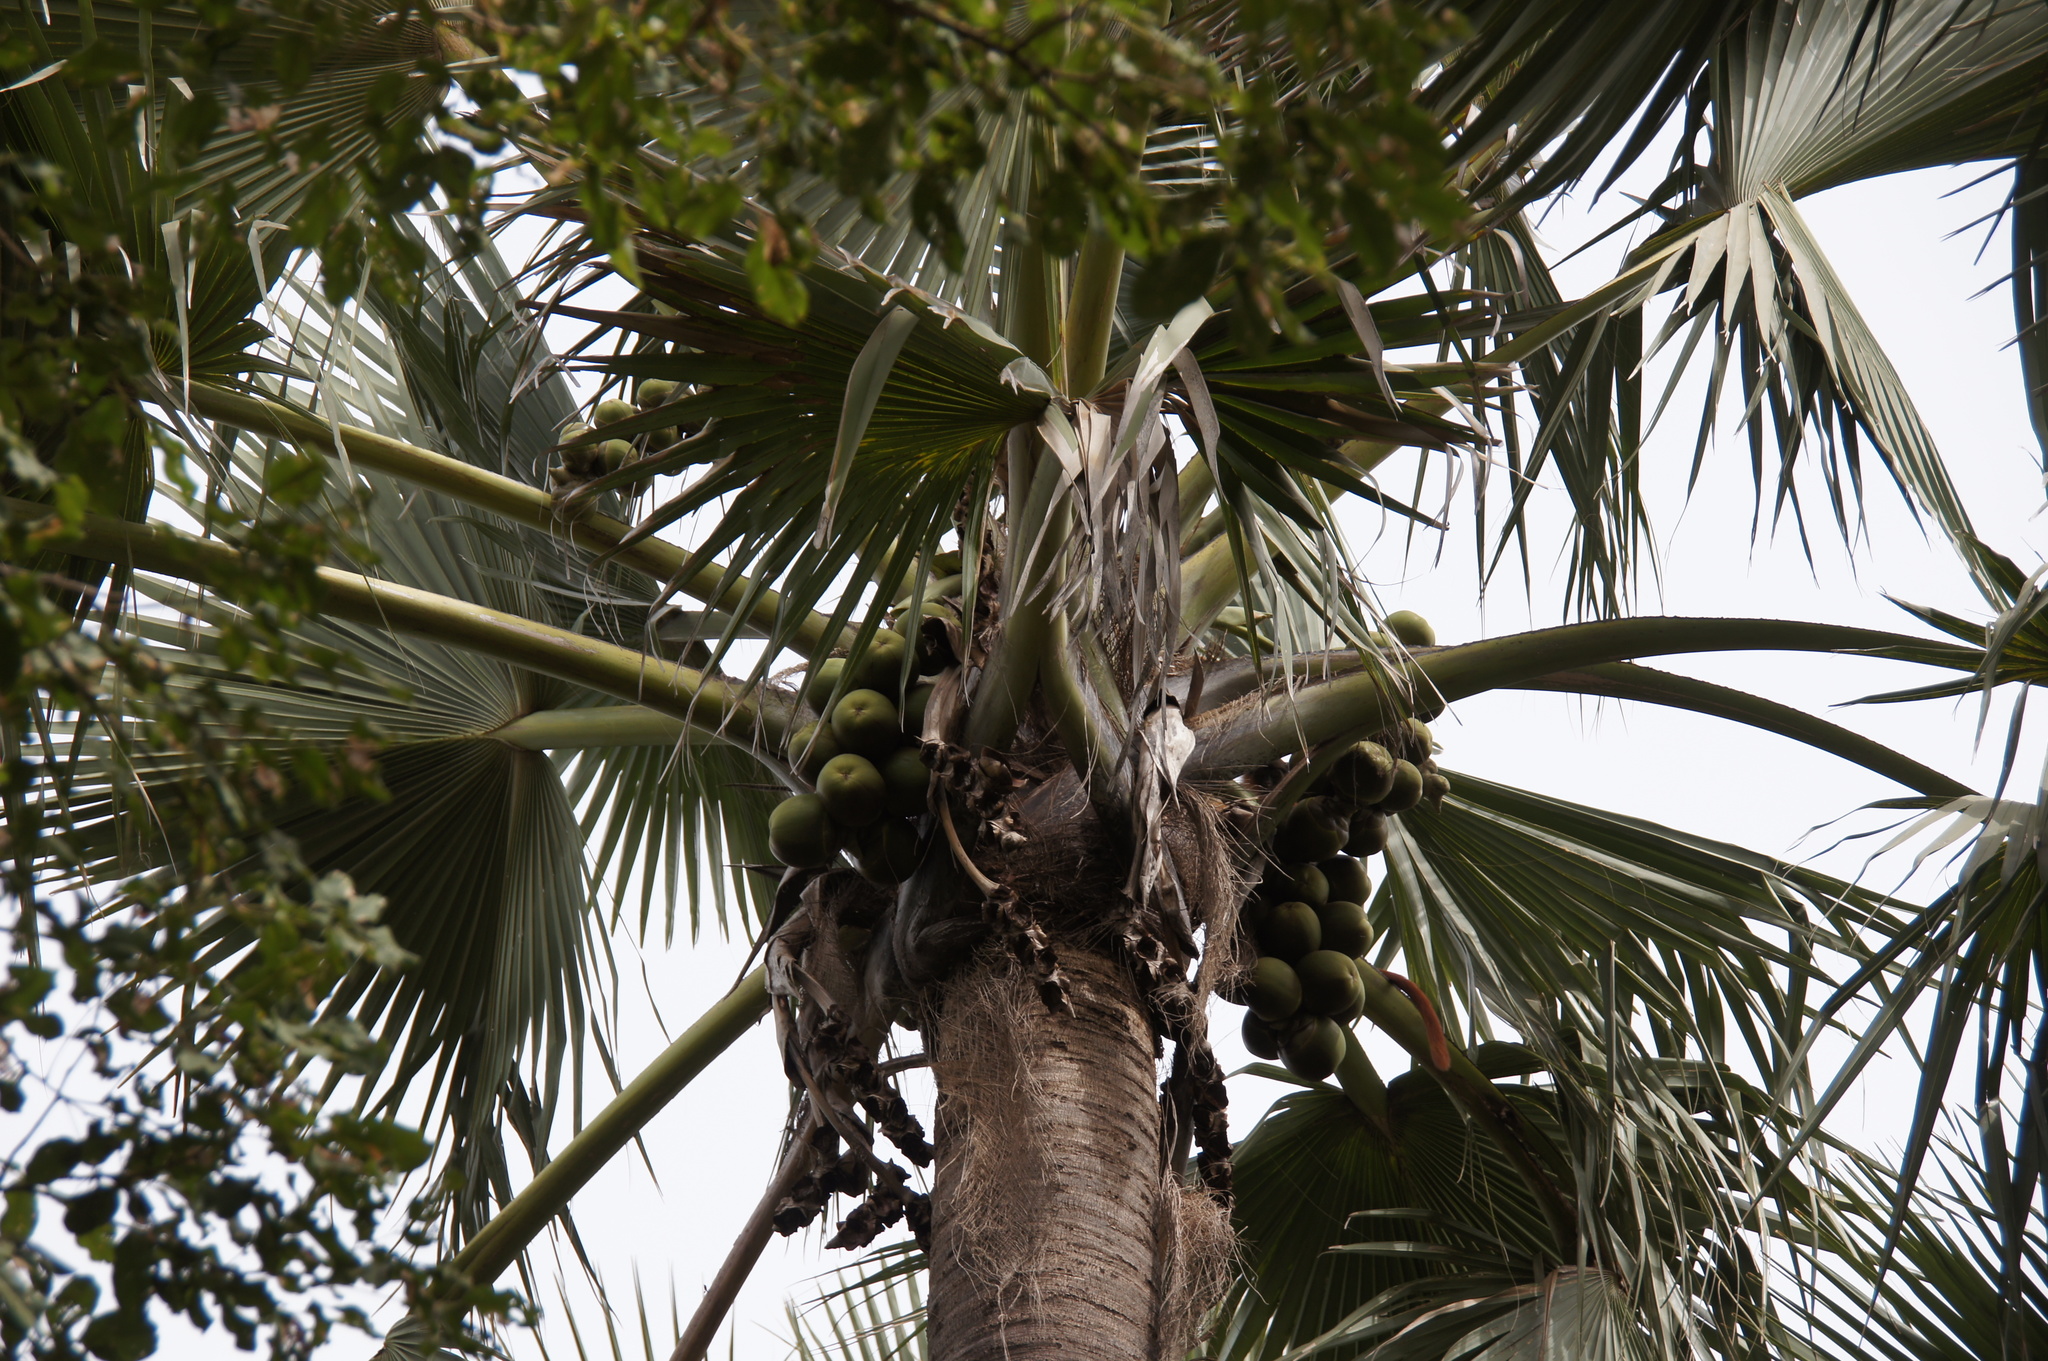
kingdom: Plantae
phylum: Tracheophyta
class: Liliopsida
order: Arecales
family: Arecaceae
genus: Borassus
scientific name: Borassus akeassii
